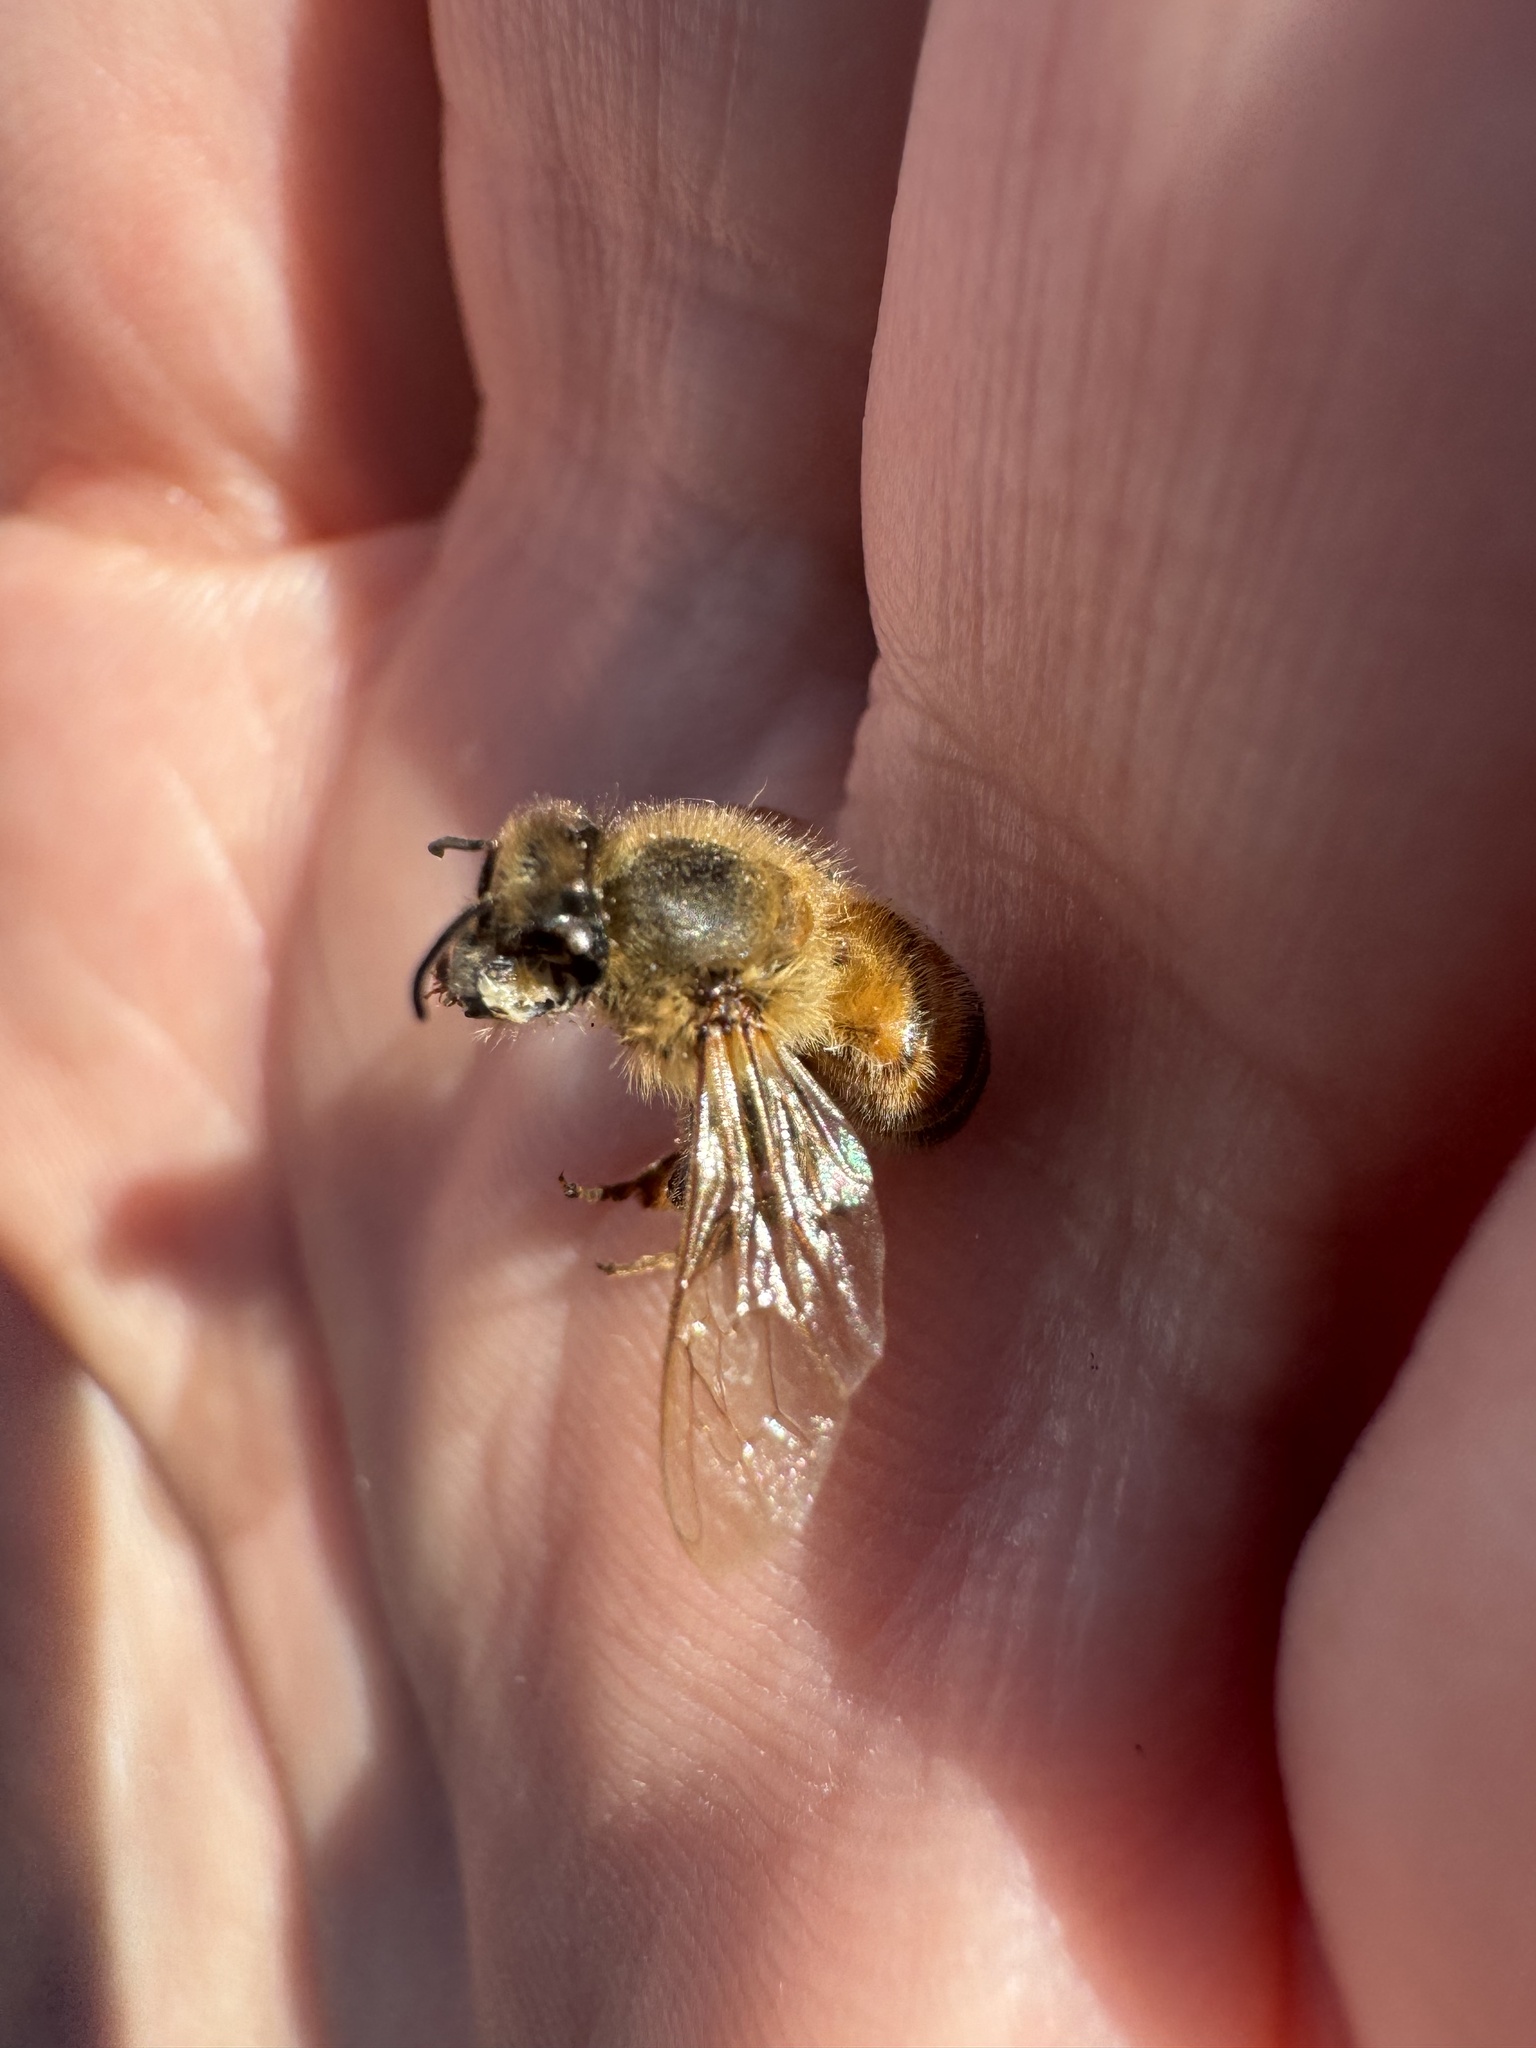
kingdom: Animalia
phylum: Arthropoda
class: Insecta
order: Hymenoptera
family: Apidae
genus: Apis
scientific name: Apis mellifera
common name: Honey bee
